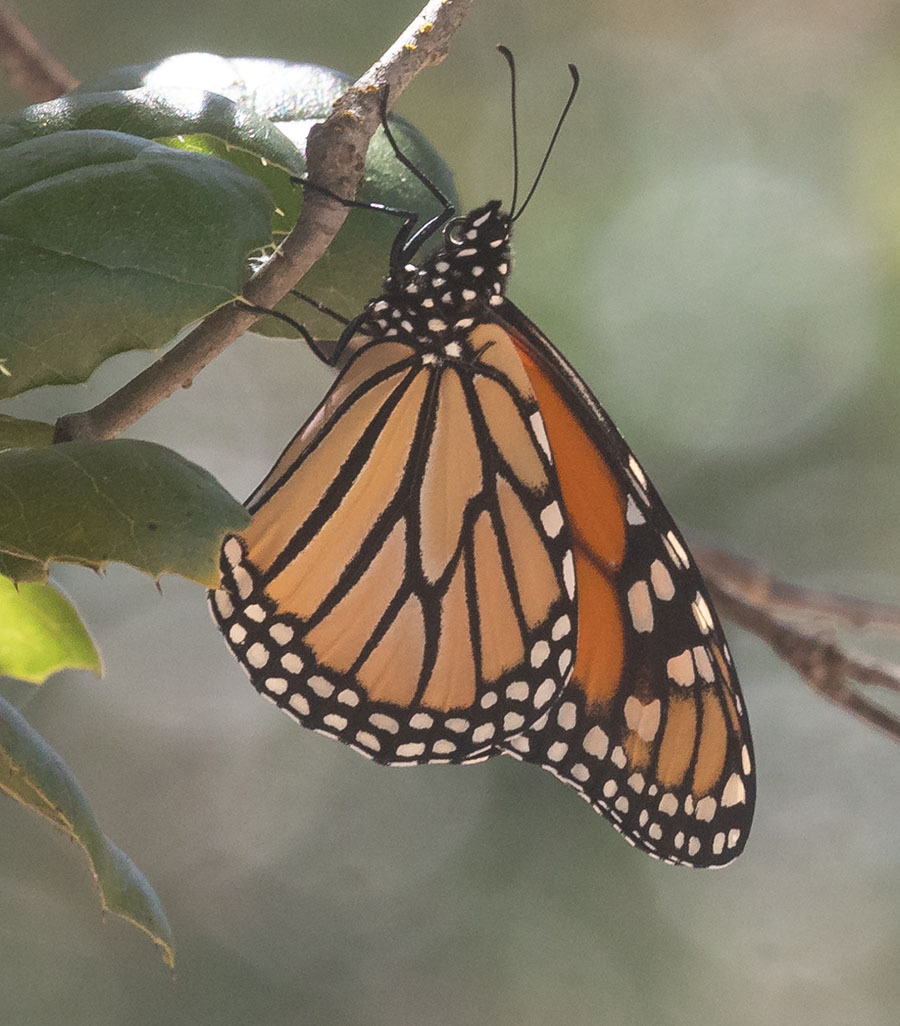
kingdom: Animalia
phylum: Arthropoda
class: Insecta
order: Lepidoptera
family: Nymphalidae
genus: Danaus
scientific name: Danaus plexippus
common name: Monarch
